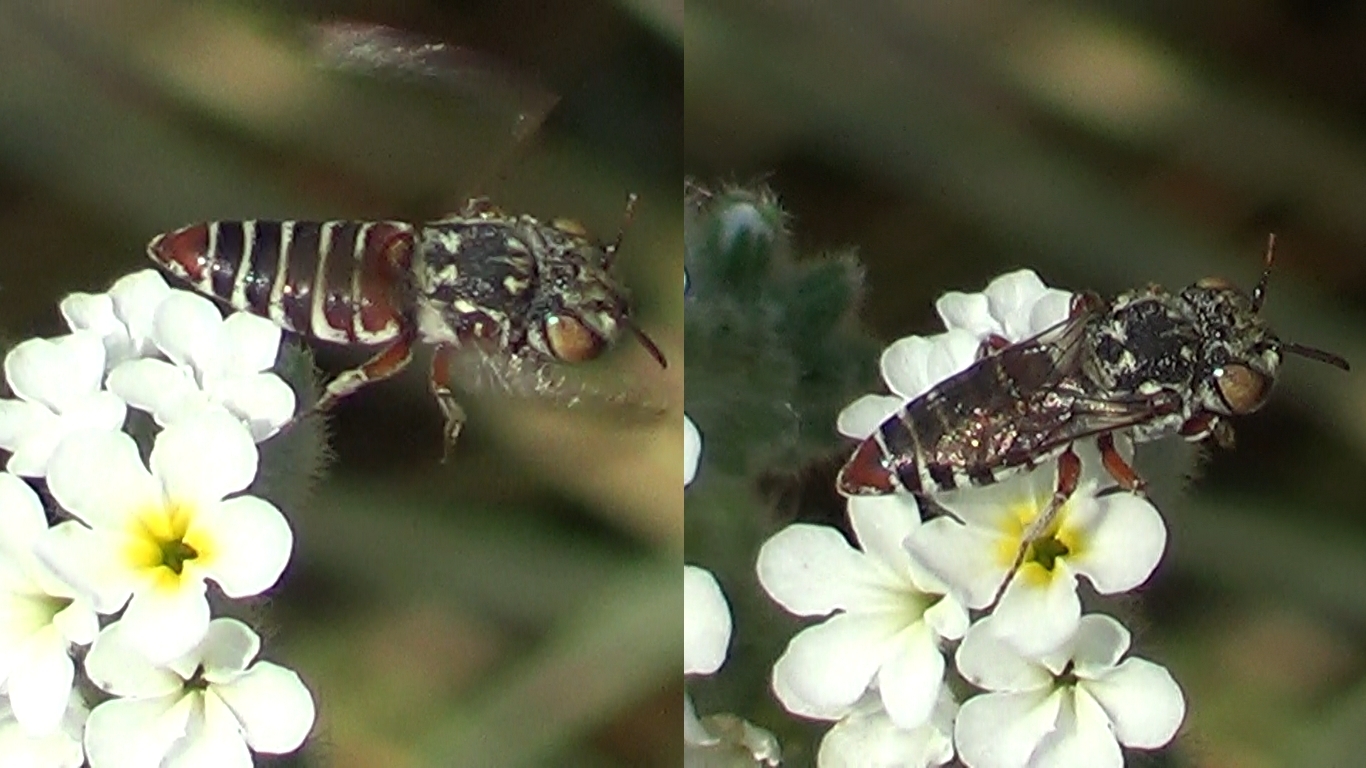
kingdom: Animalia
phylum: Arthropoda
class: Insecta
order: Hymenoptera
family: Megachilidae
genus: Coelioxys
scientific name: Coelioxys haemorrhoa
